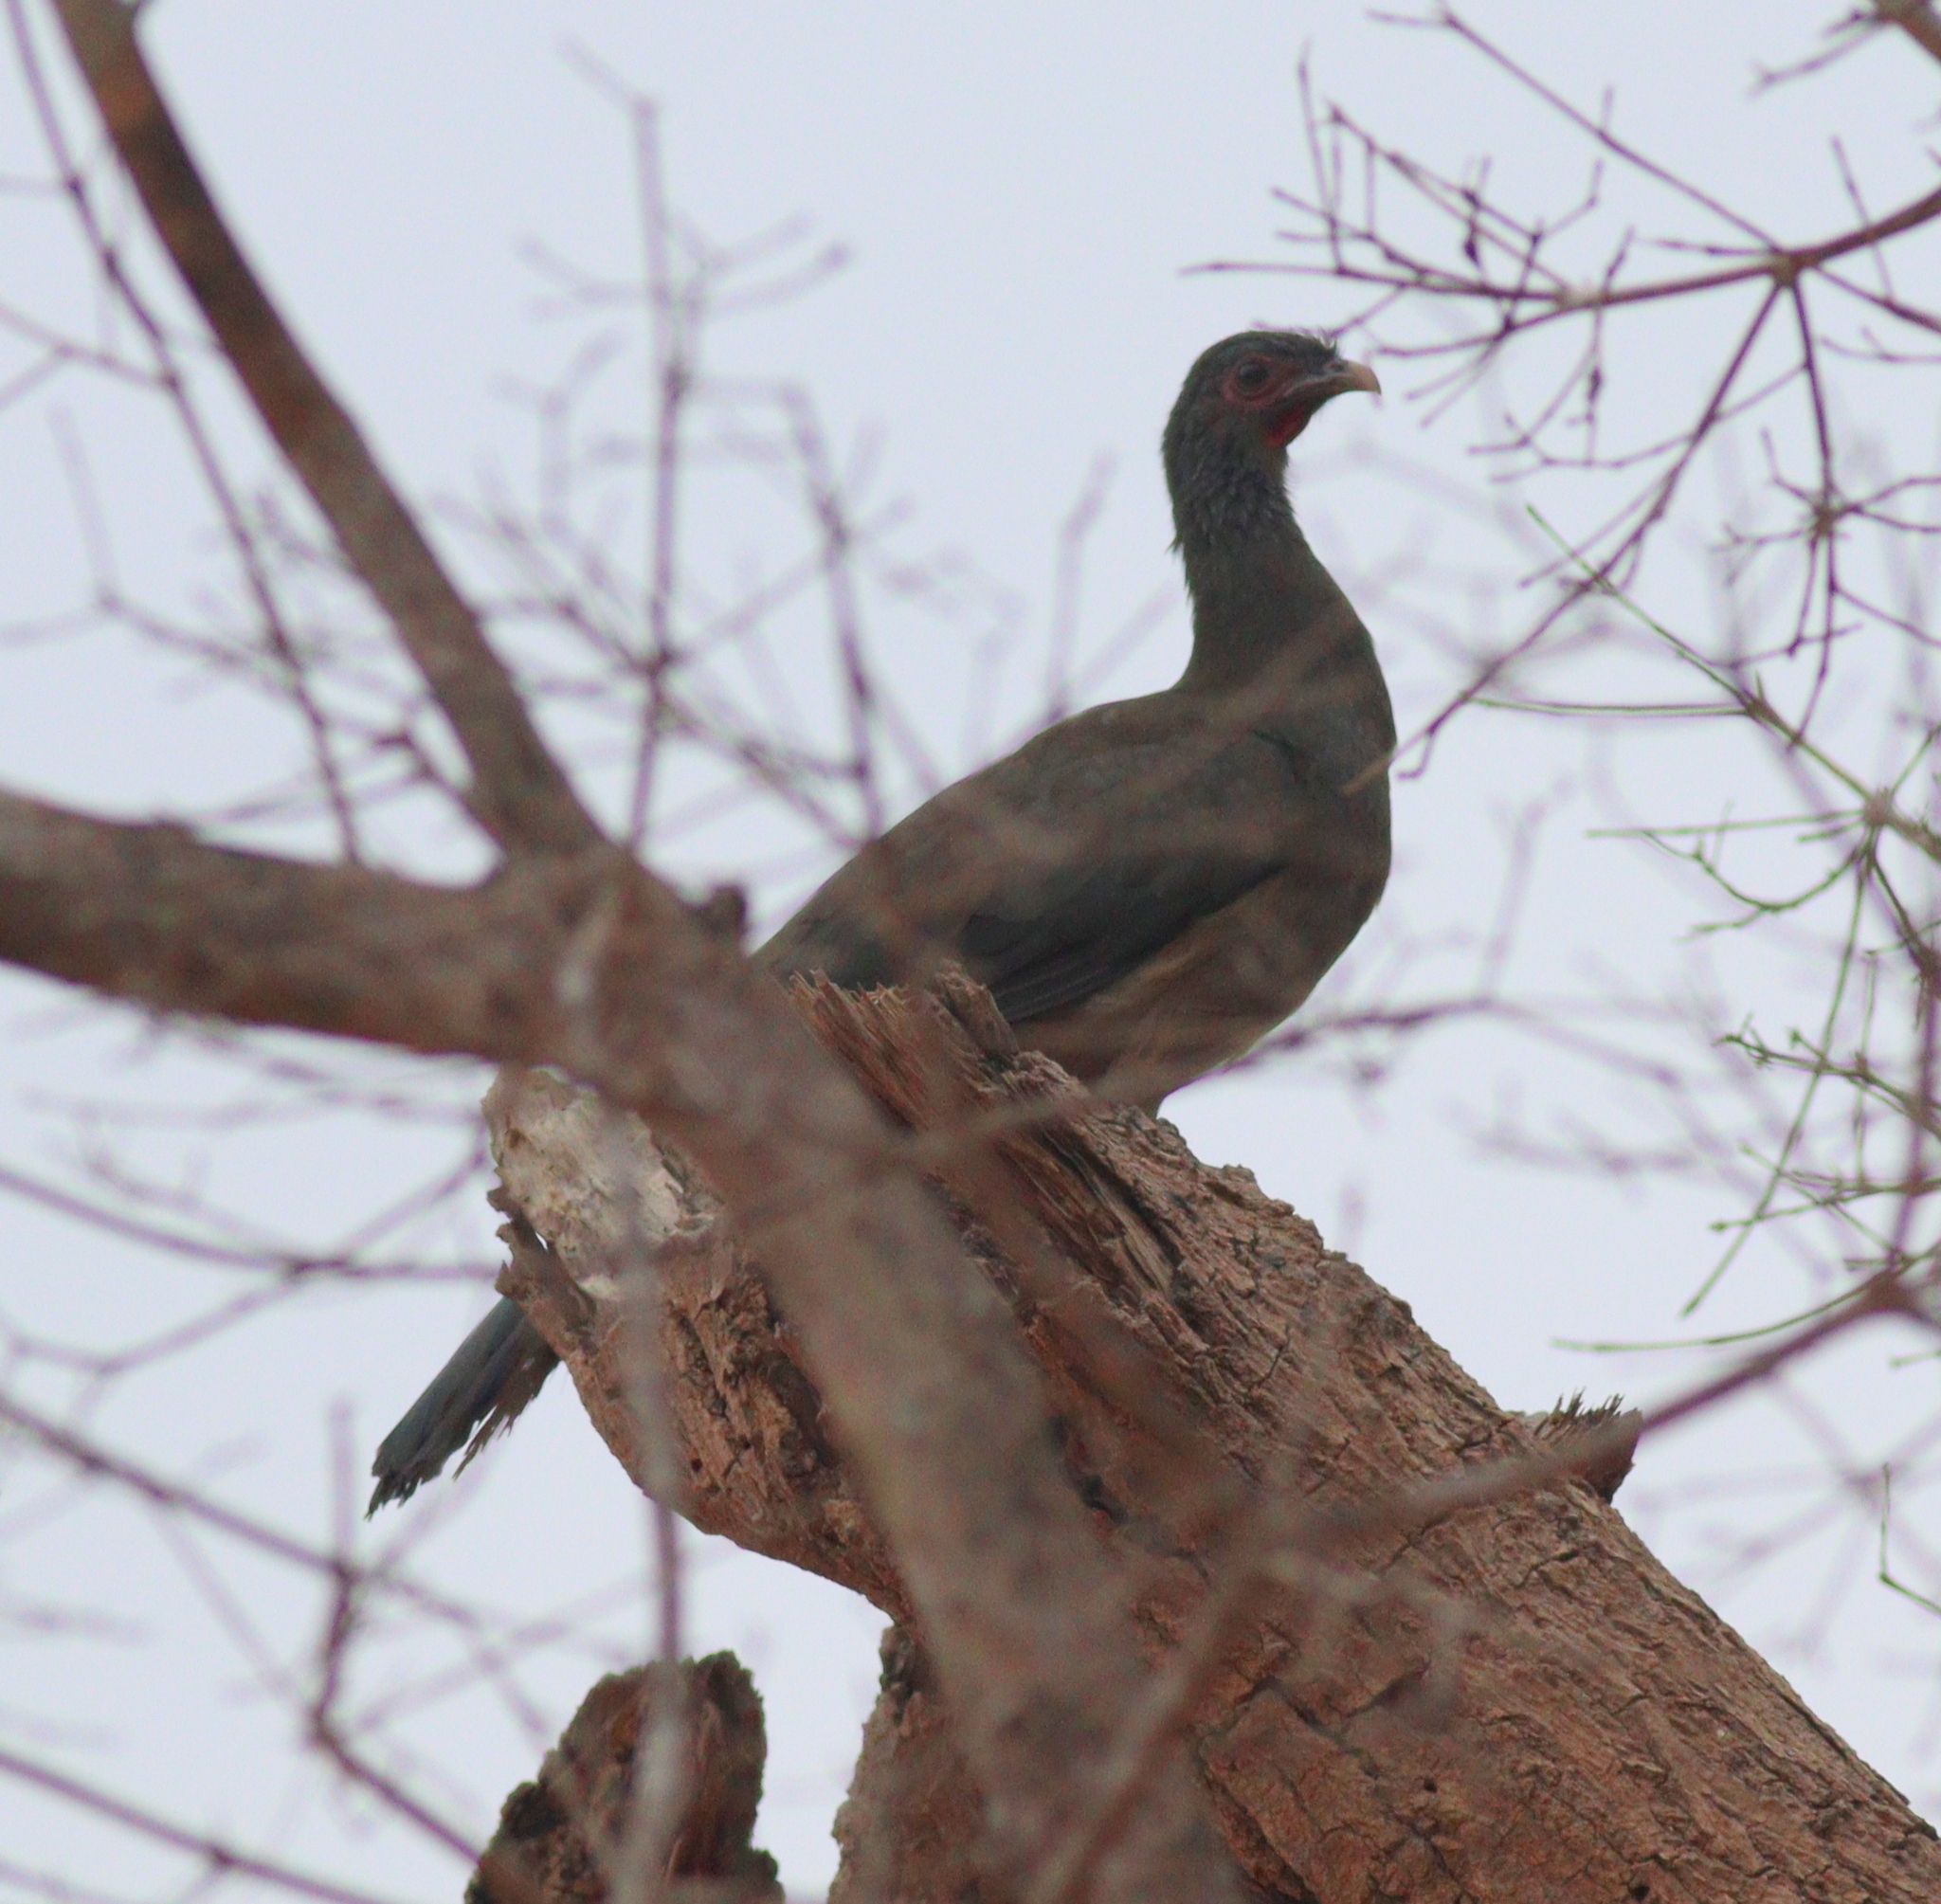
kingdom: Animalia
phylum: Chordata
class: Aves
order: Galliformes
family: Cracidae
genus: Ortalis
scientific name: Ortalis canicollis
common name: Chaco chachalaca
